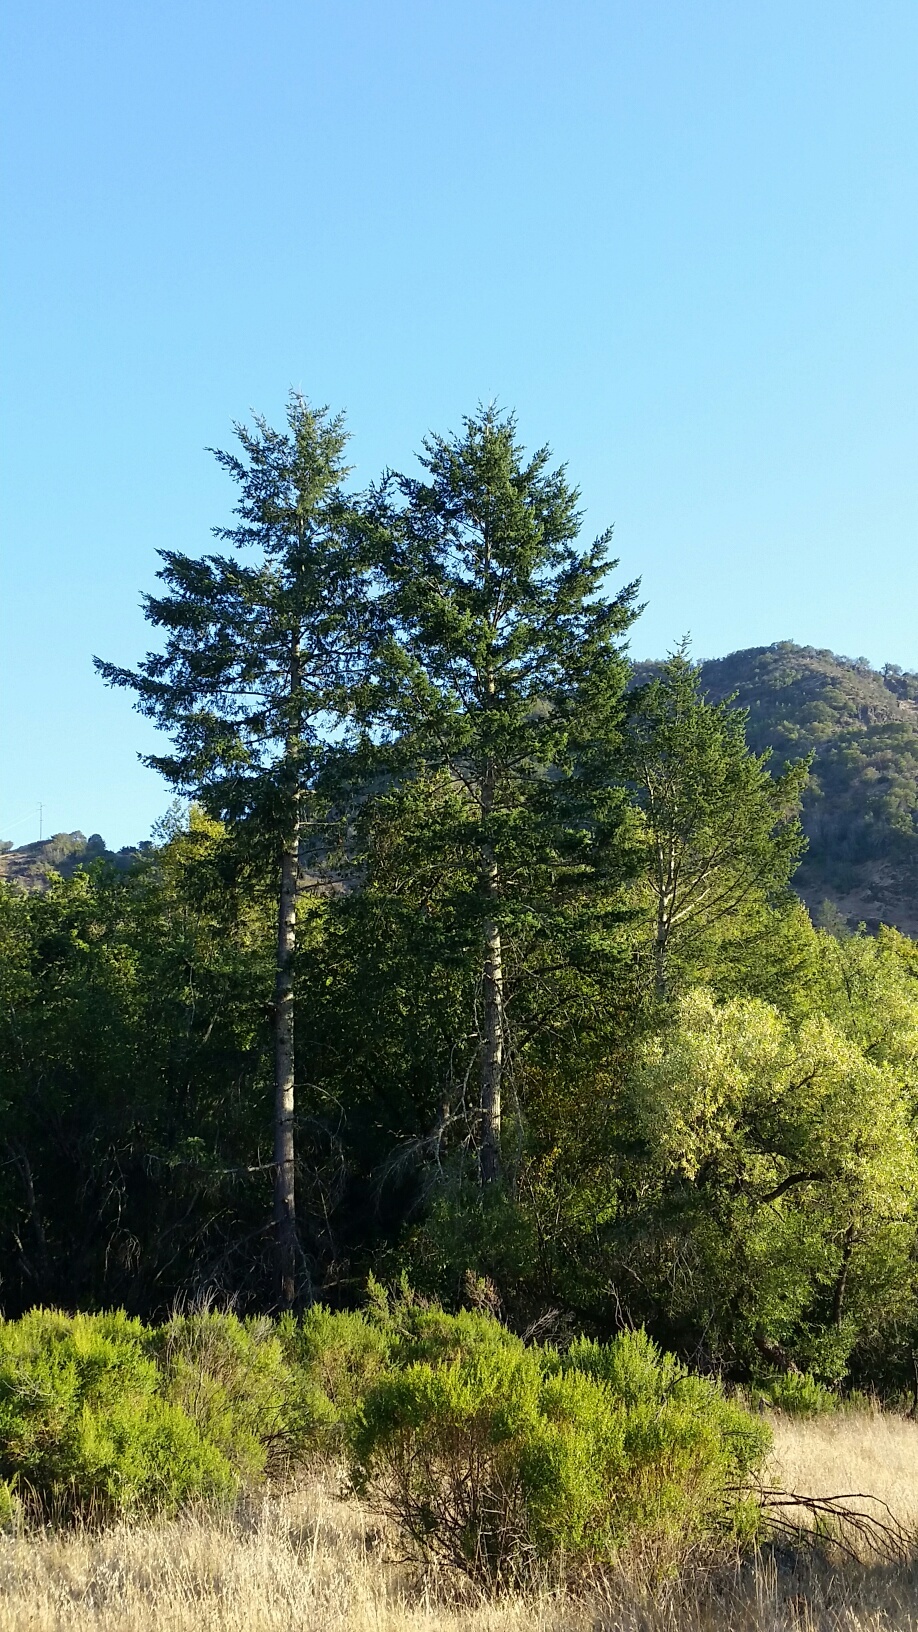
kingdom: Plantae
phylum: Tracheophyta
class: Pinopsida
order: Pinales
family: Pinaceae
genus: Pseudotsuga
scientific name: Pseudotsuga menziesii
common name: Douglas fir
